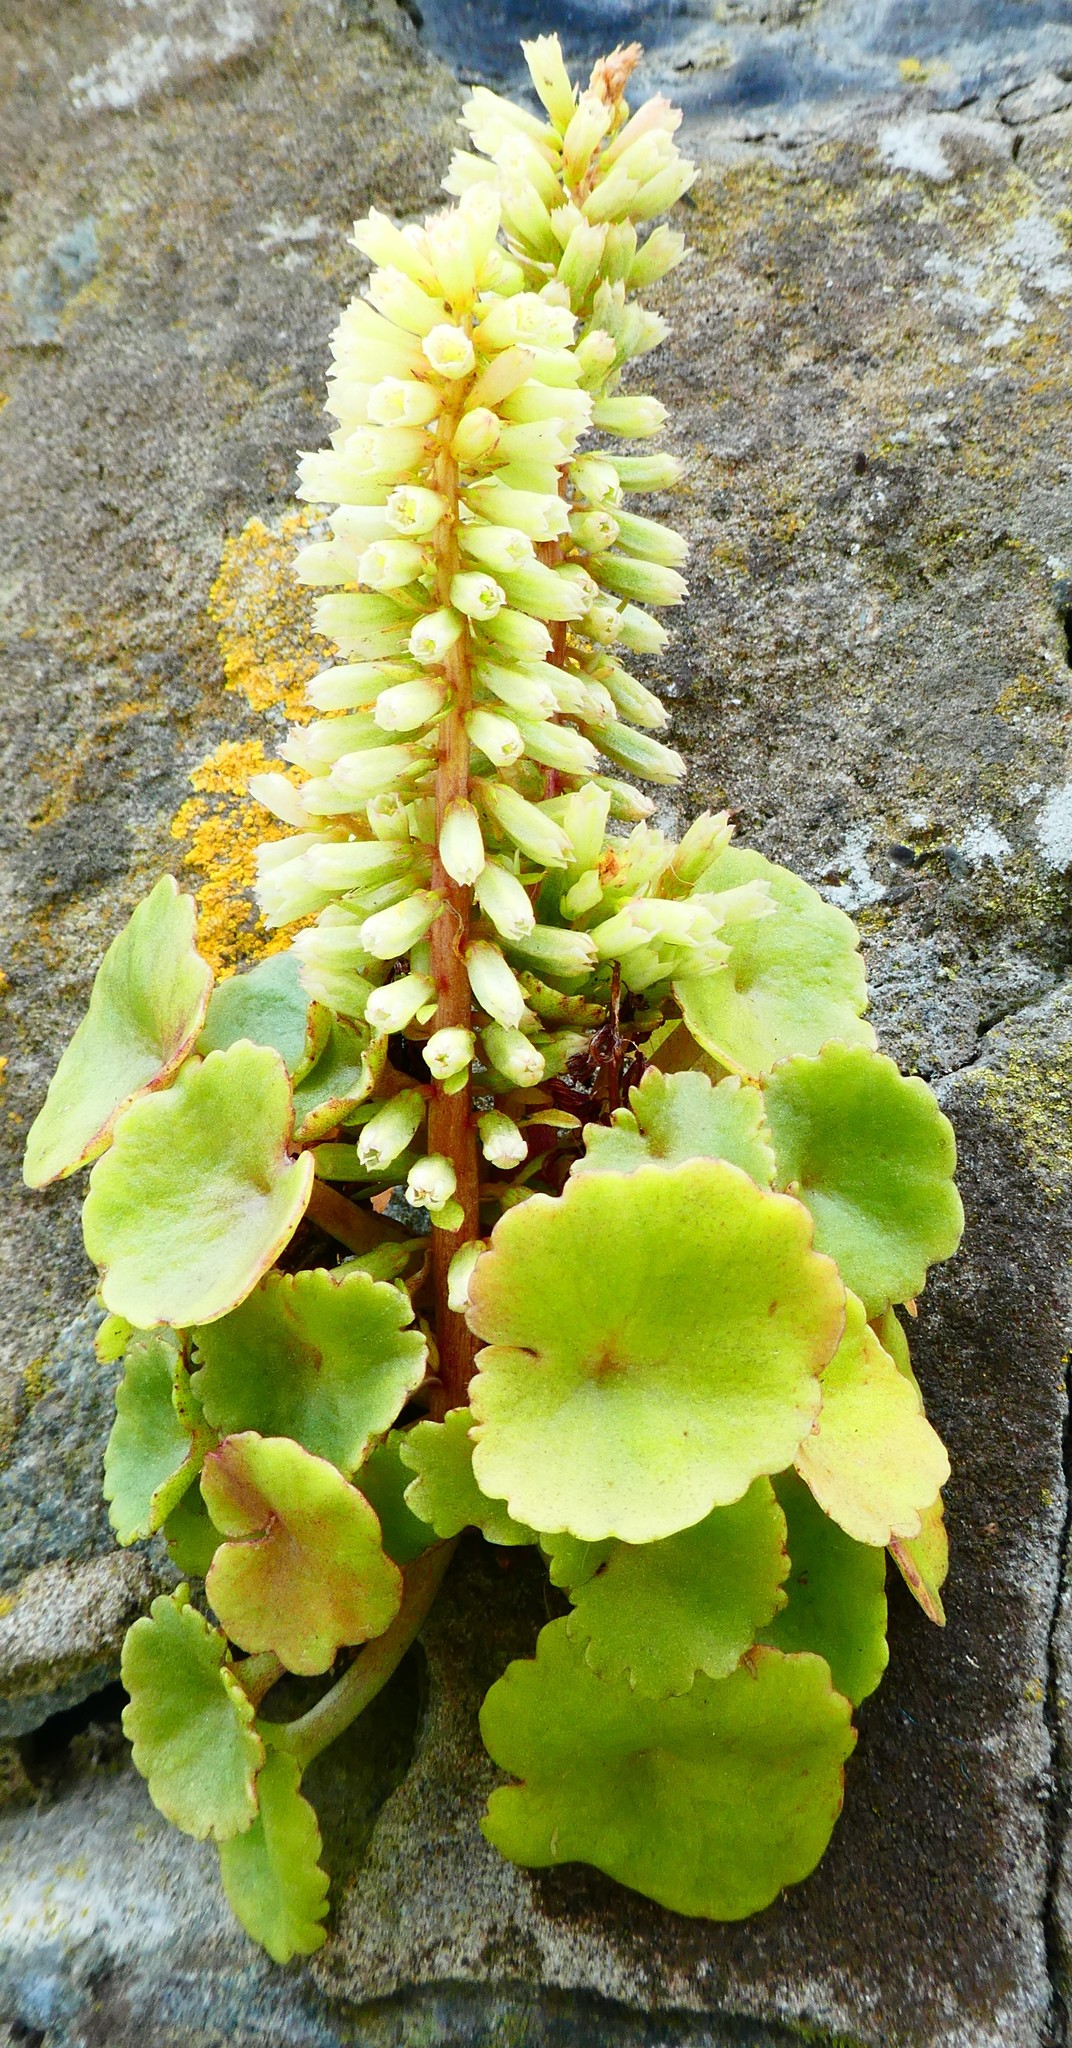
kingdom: Plantae
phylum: Tracheophyta
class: Magnoliopsida
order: Saxifragales
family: Crassulaceae
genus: Umbilicus
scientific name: Umbilicus rupestris
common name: Navelwort
